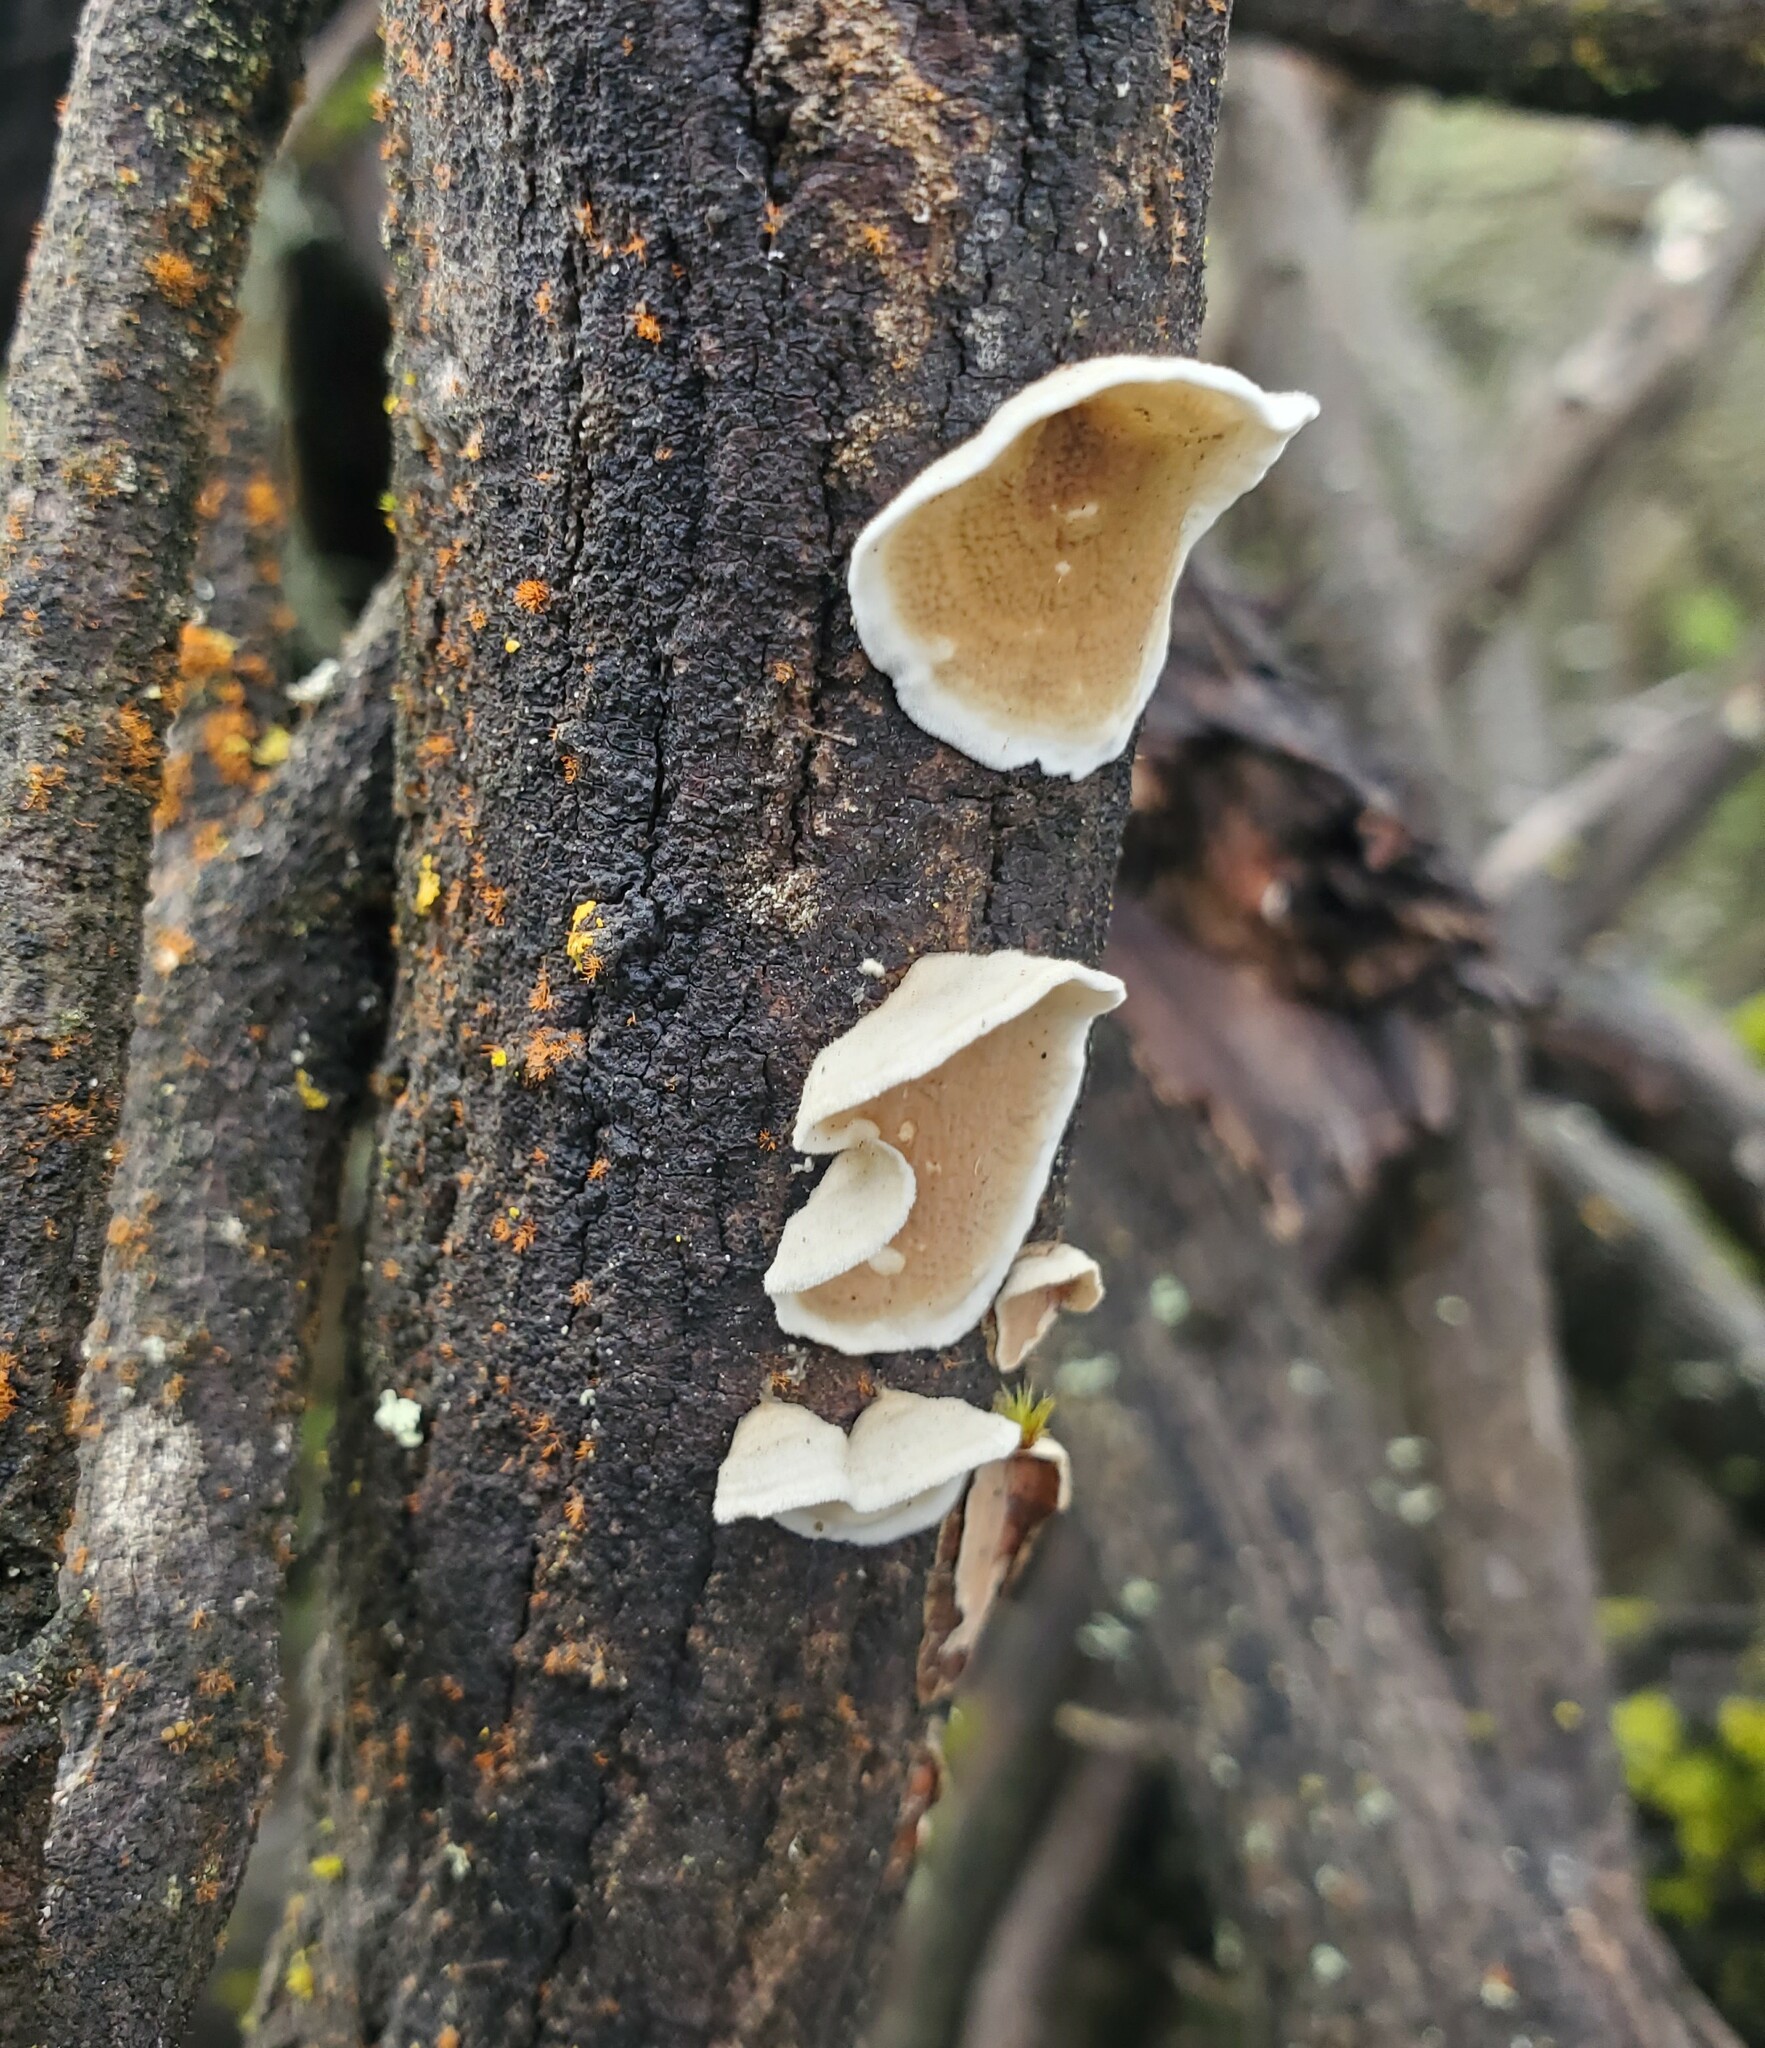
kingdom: Fungi
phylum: Basidiomycota
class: Agaricomycetes
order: Polyporales
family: Irpicaceae
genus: Byssomerulius
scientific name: Byssomerulius corium
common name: Netted crust
